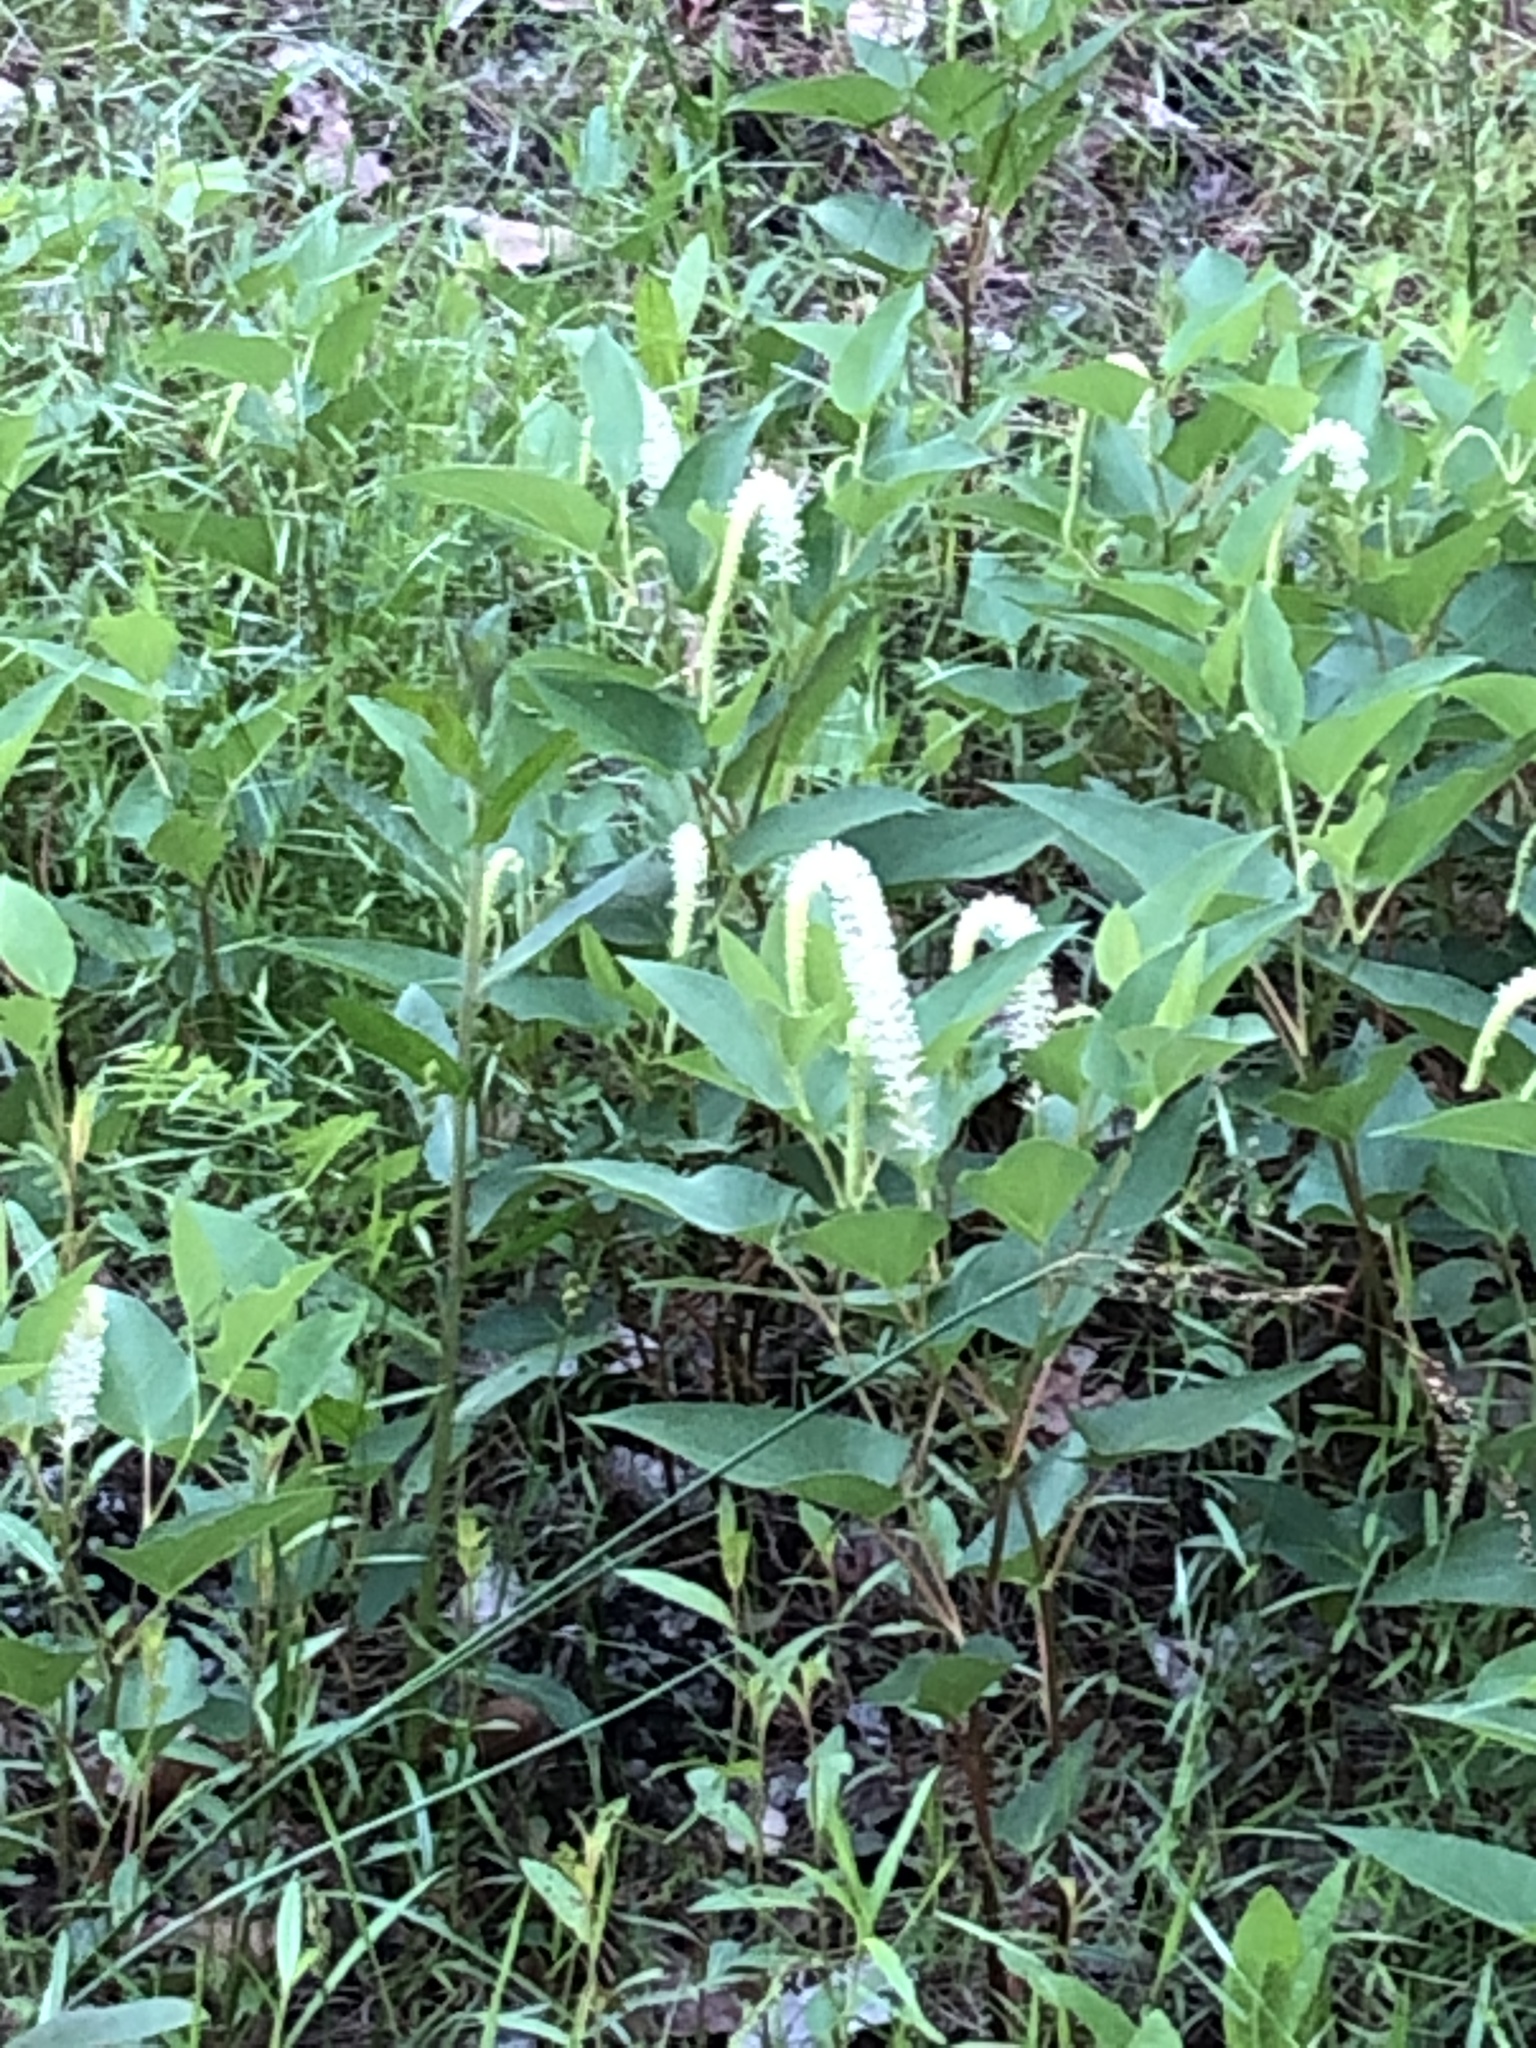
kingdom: Plantae
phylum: Tracheophyta
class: Magnoliopsida
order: Piperales
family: Saururaceae
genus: Saururus
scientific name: Saururus cernuus
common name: Lizard's-tail
